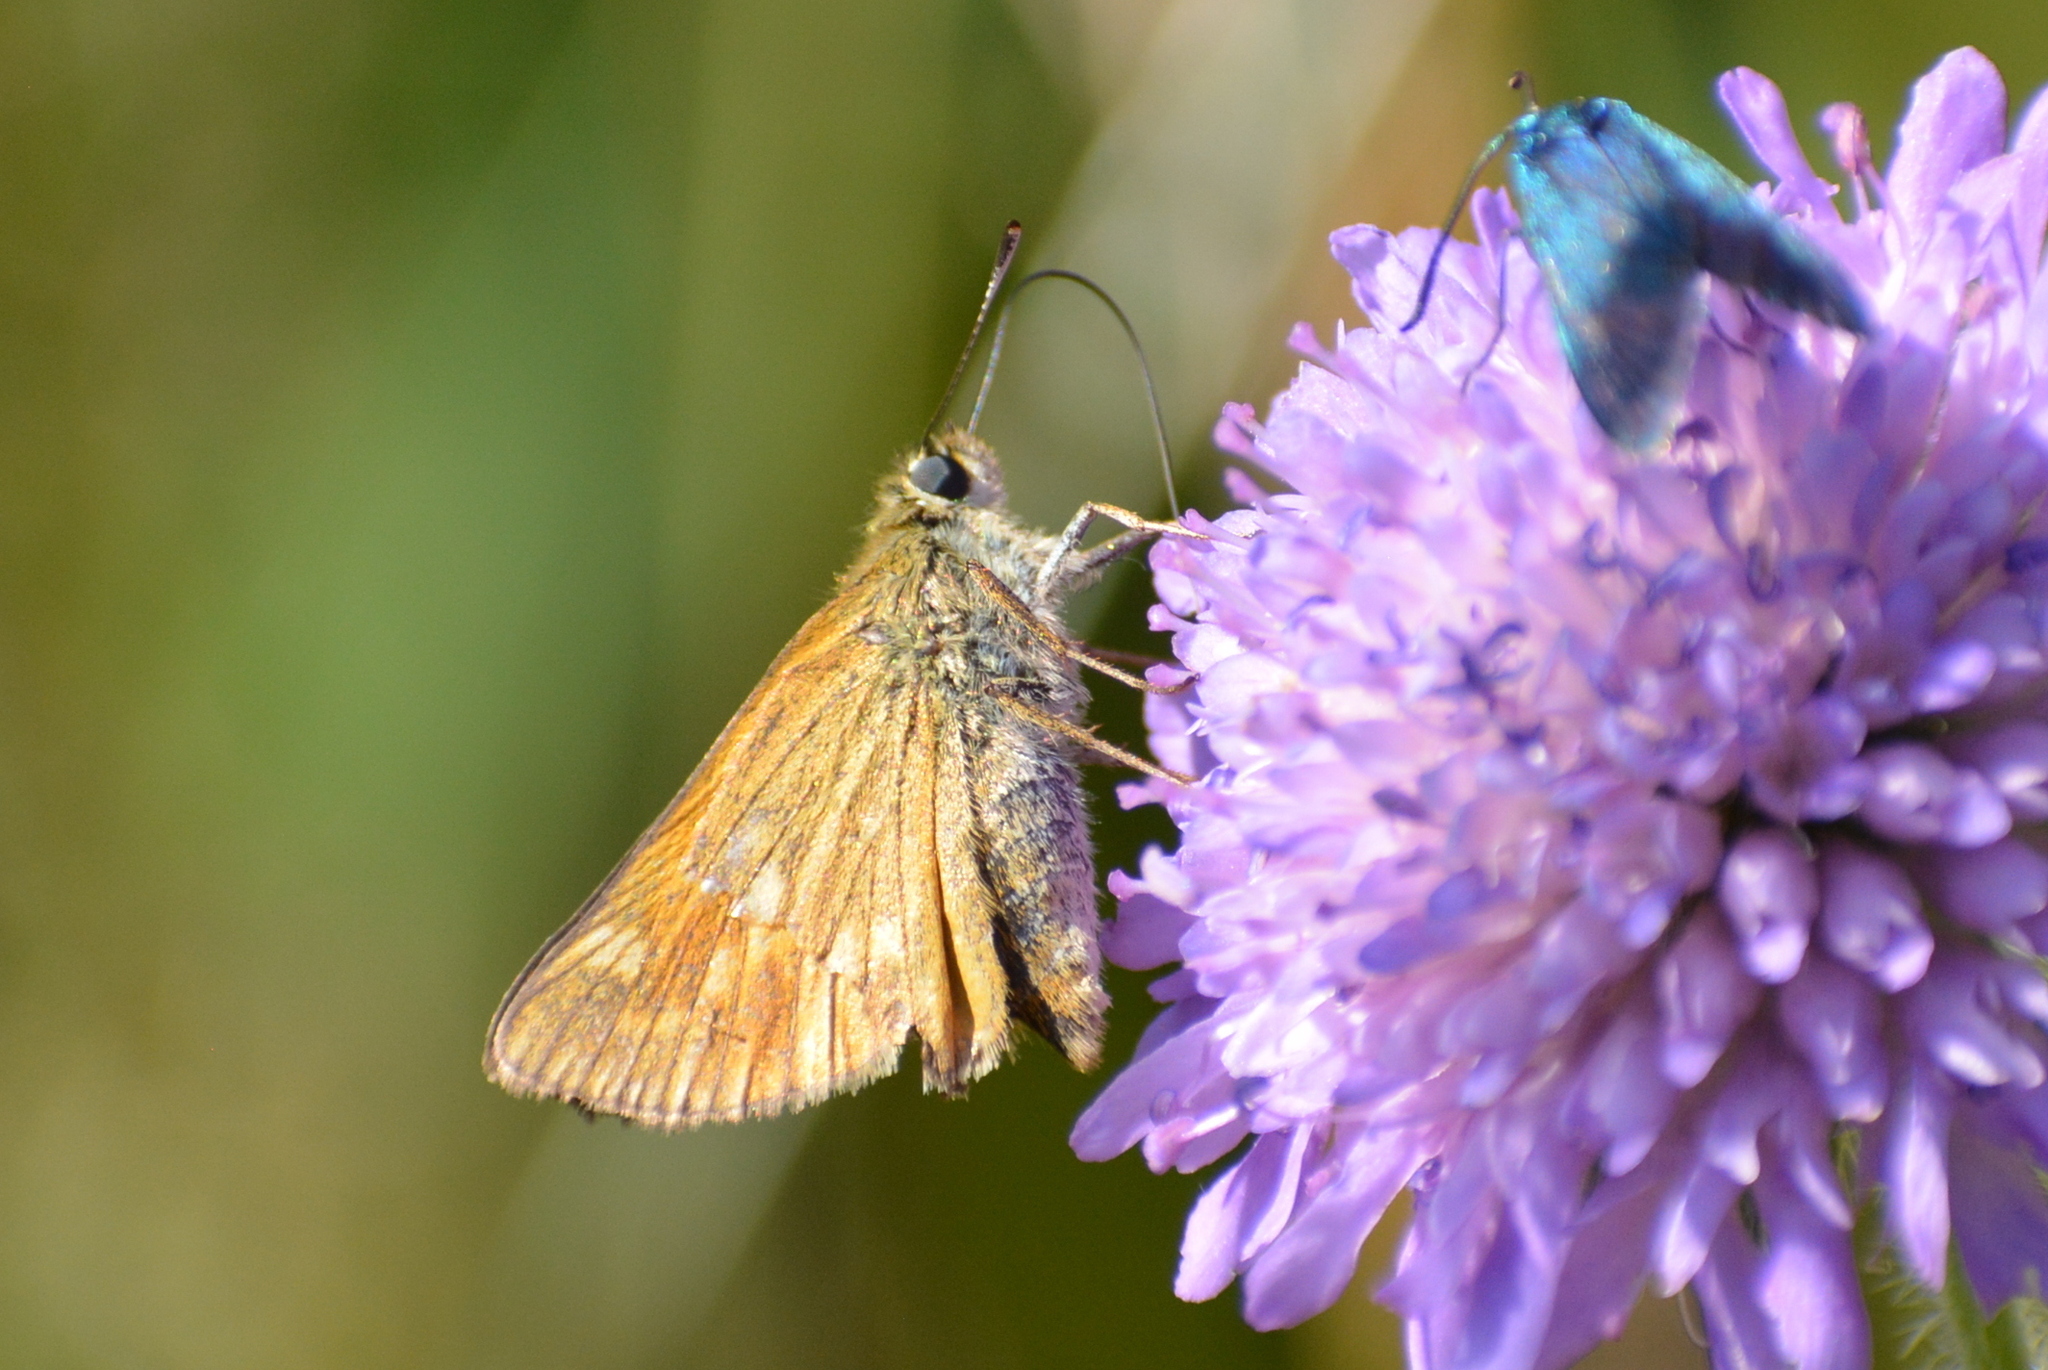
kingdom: Animalia
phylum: Arthropoda
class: Insecta
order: Lepidoptera
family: Hesperiidae
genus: Ochlodes
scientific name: Ochlodes venata
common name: Large skipper
